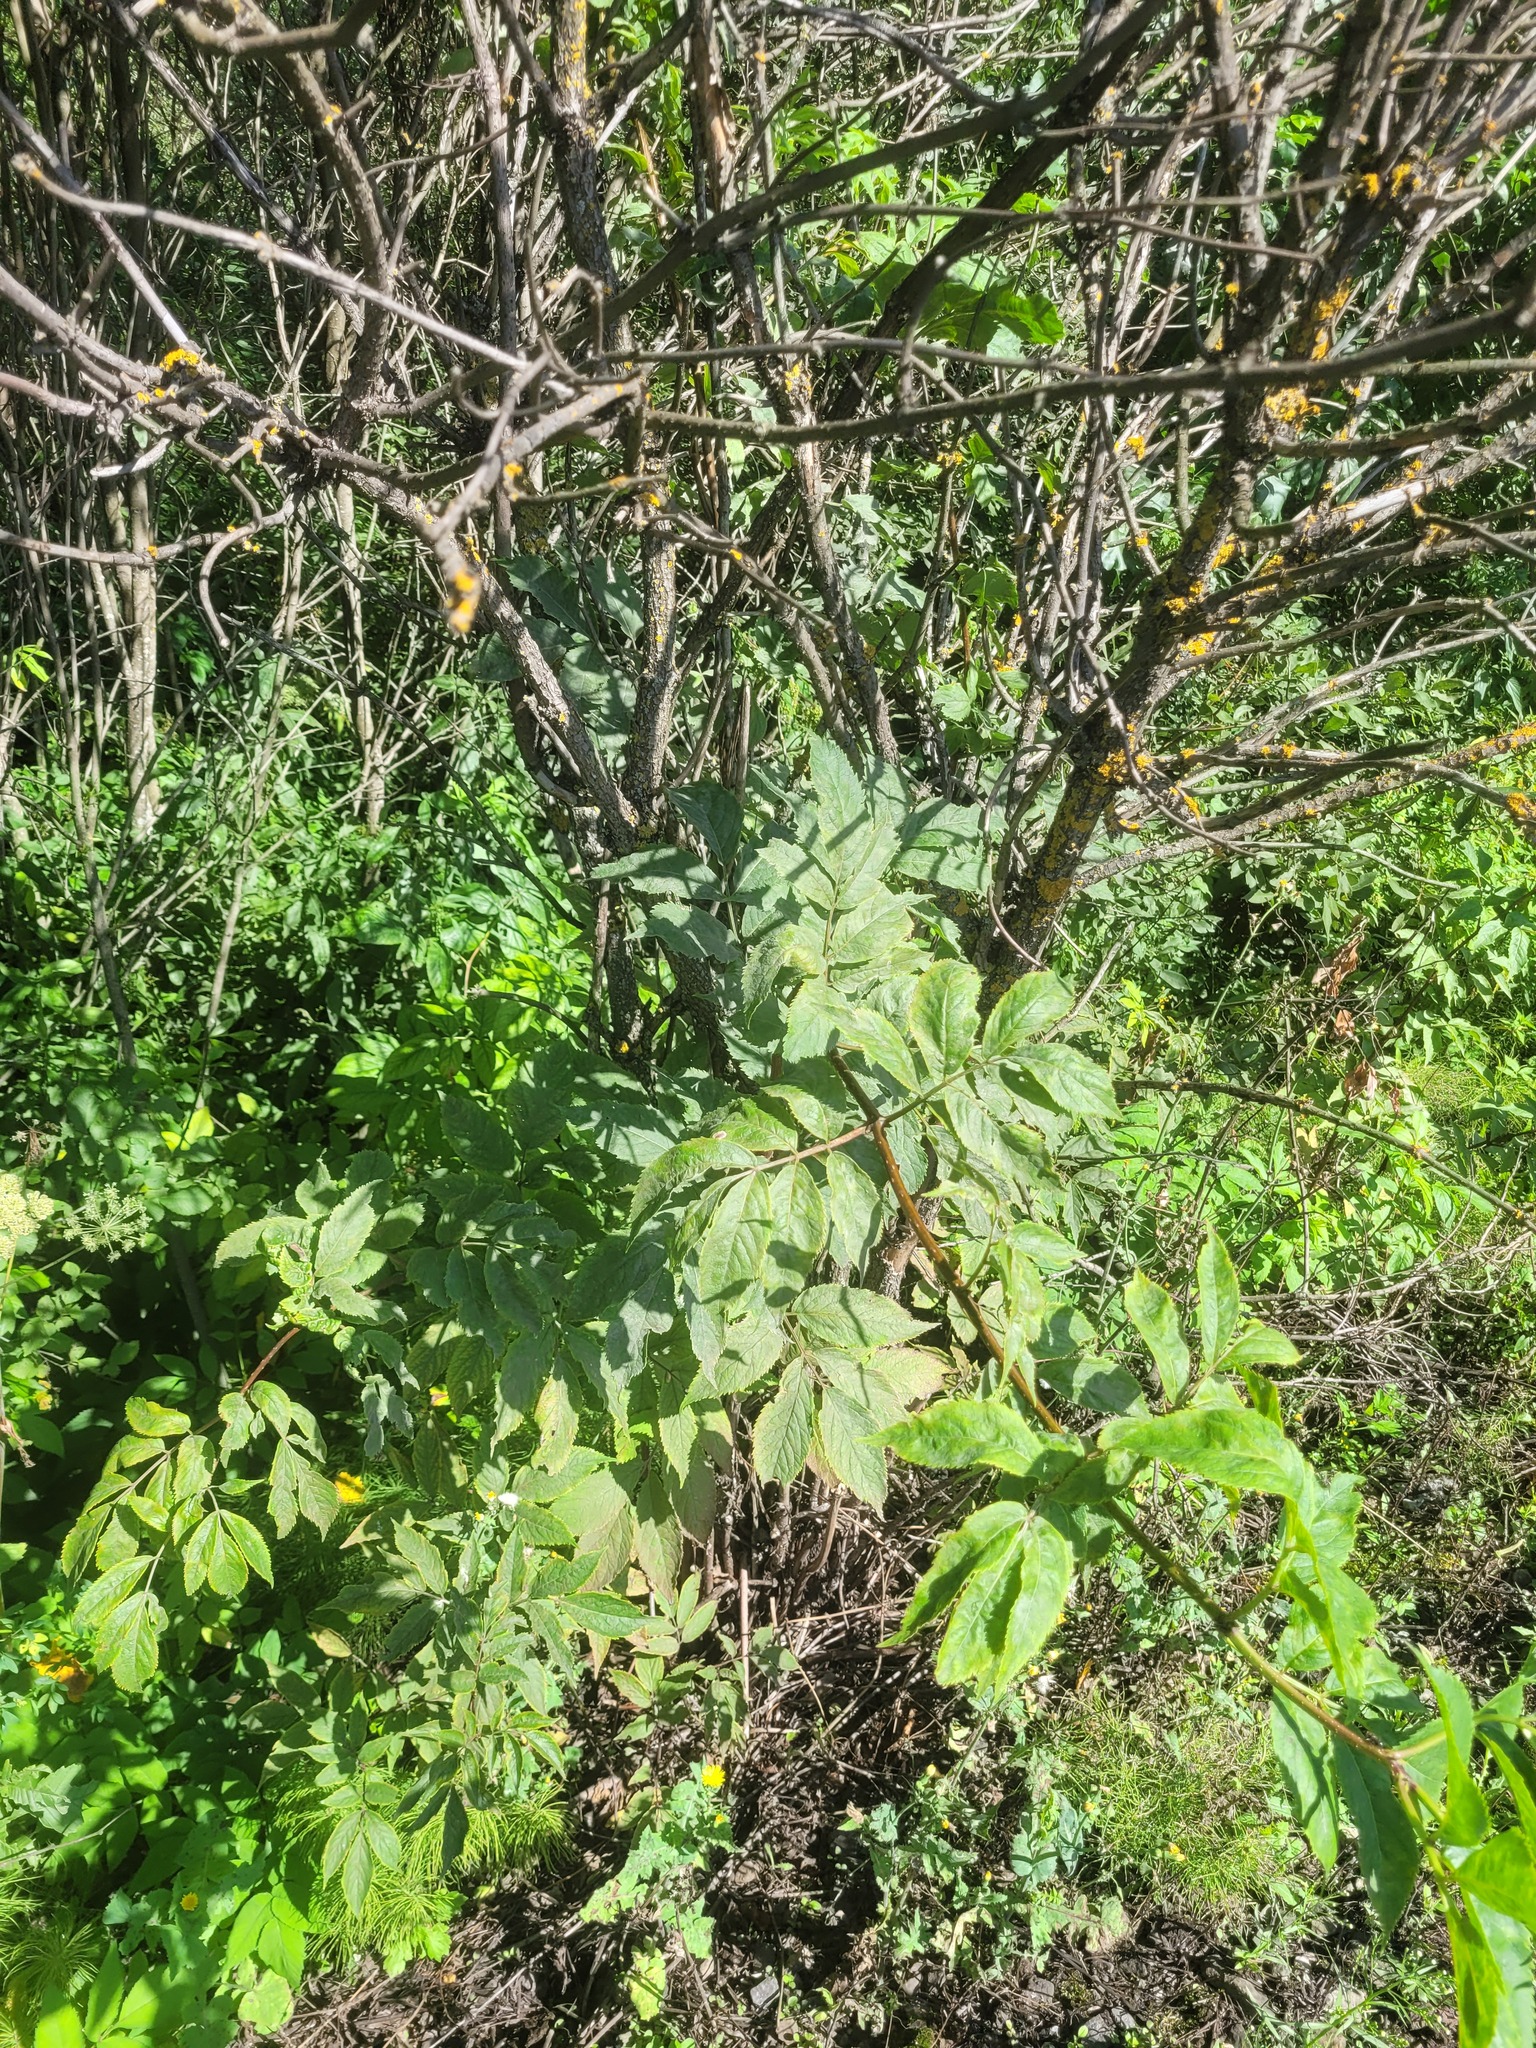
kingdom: Plantae
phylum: Tracheophyta
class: Magnoliopsida
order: Dipsacales
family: Viburnaceae
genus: Sambucus
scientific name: Sambucus racemosa
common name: Red-berried elder
